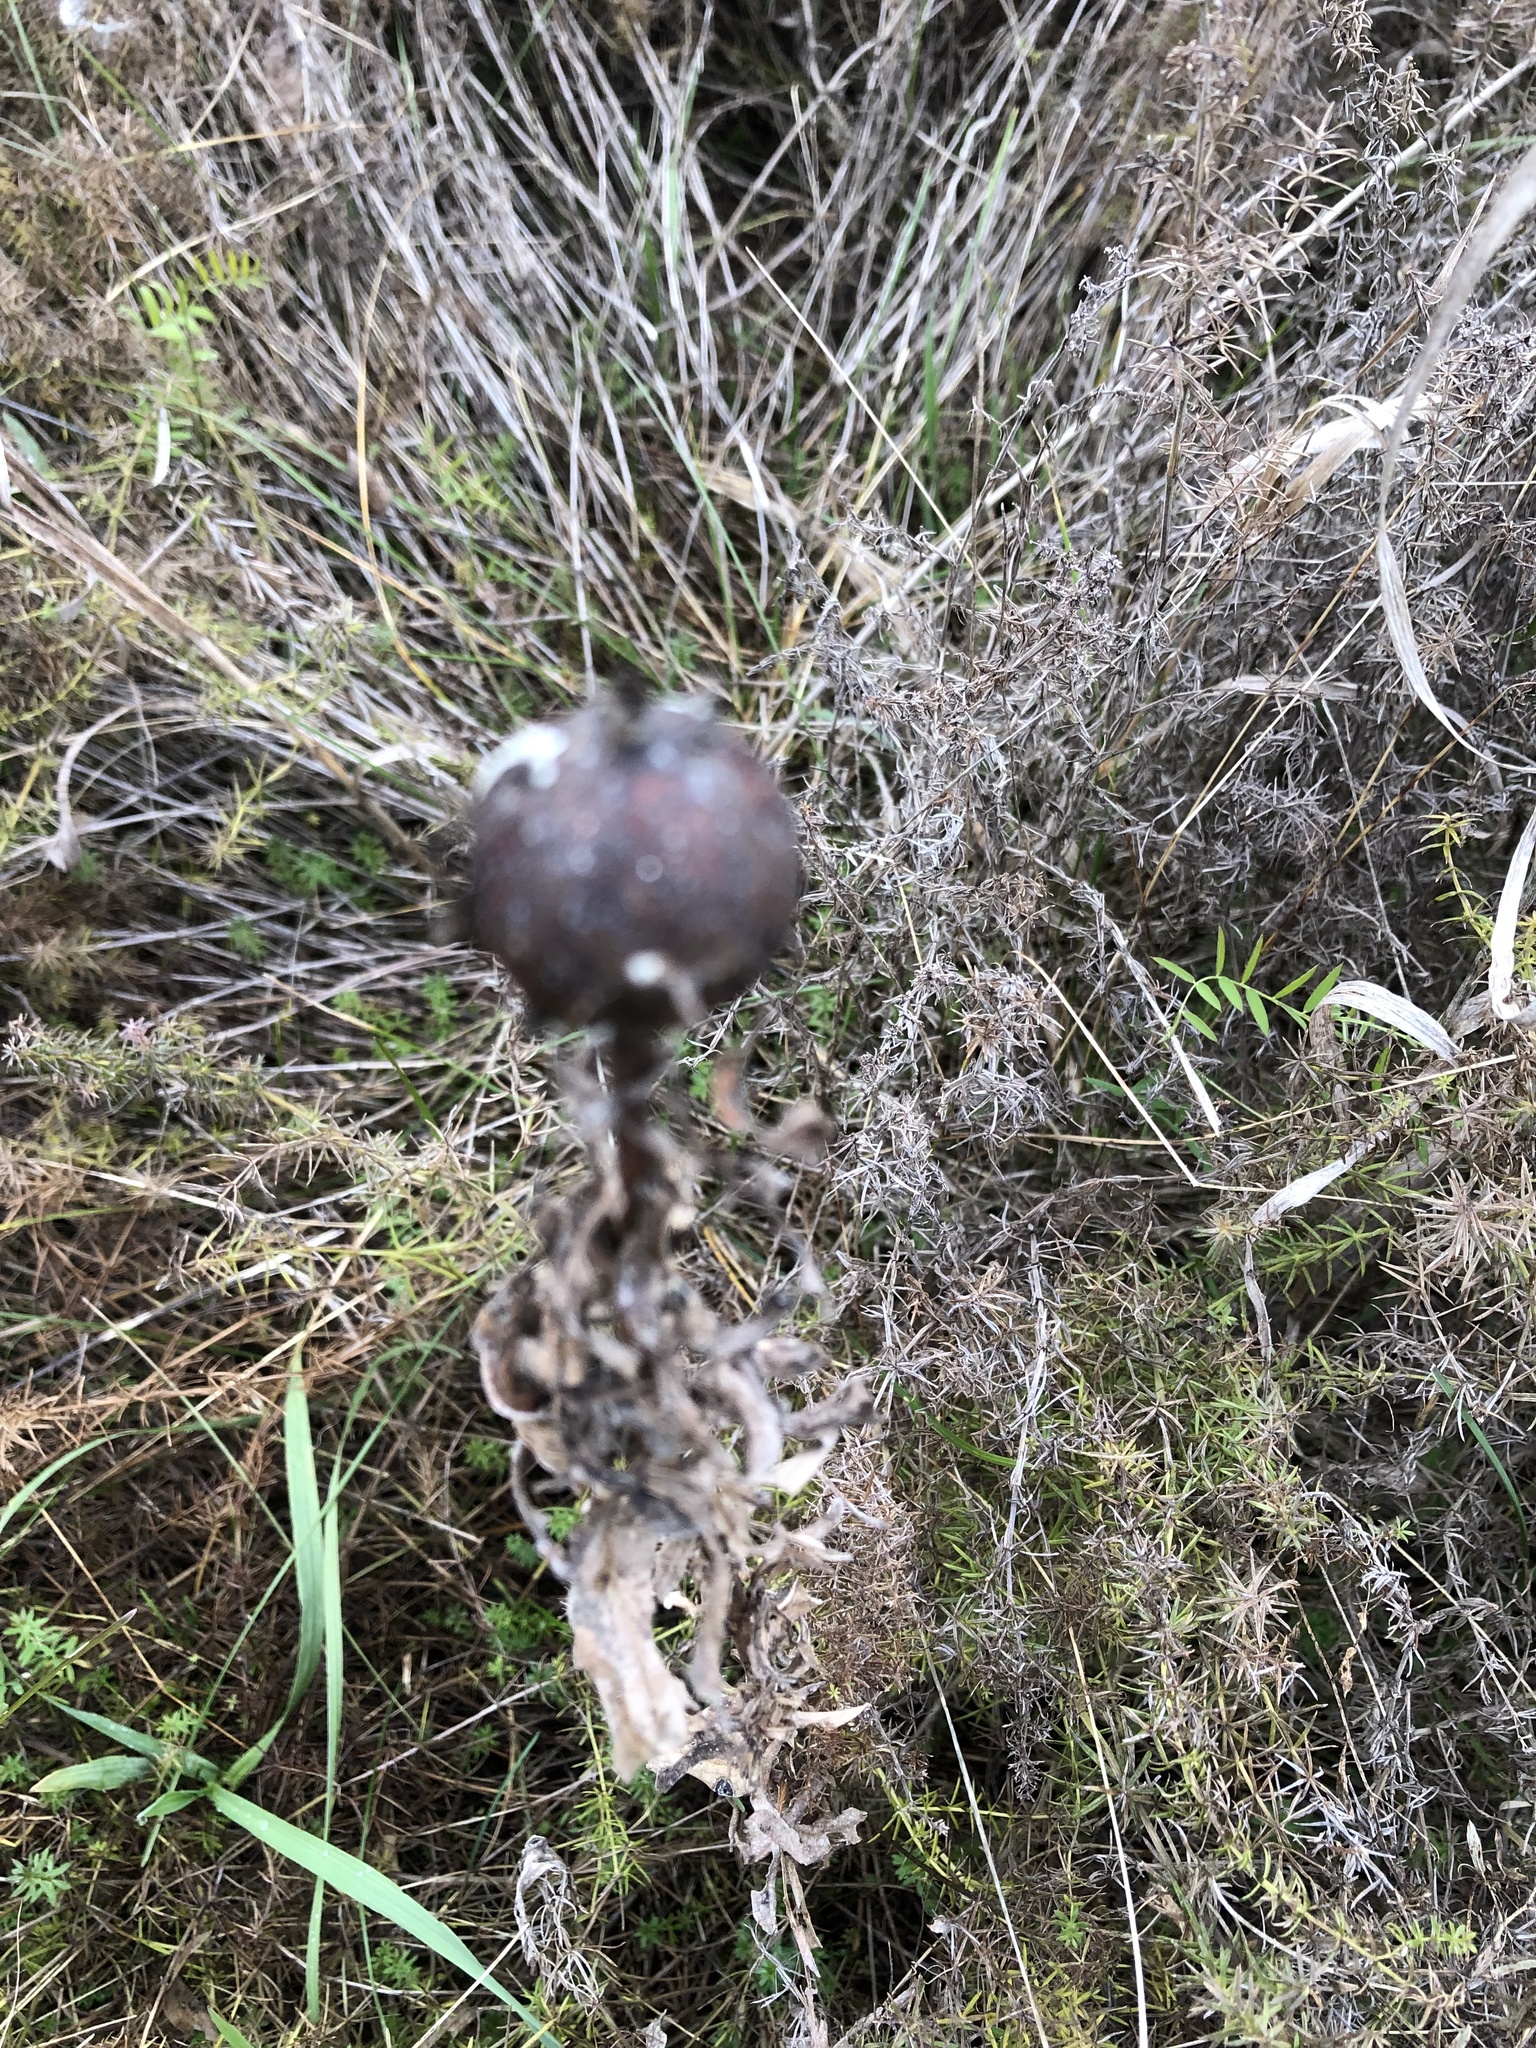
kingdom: Animalia
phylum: Arthropoda
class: Insecta
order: Diptera
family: Tephritidae
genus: Eurosta
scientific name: Eurosta solidaginis
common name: Goldenrod gall fly
